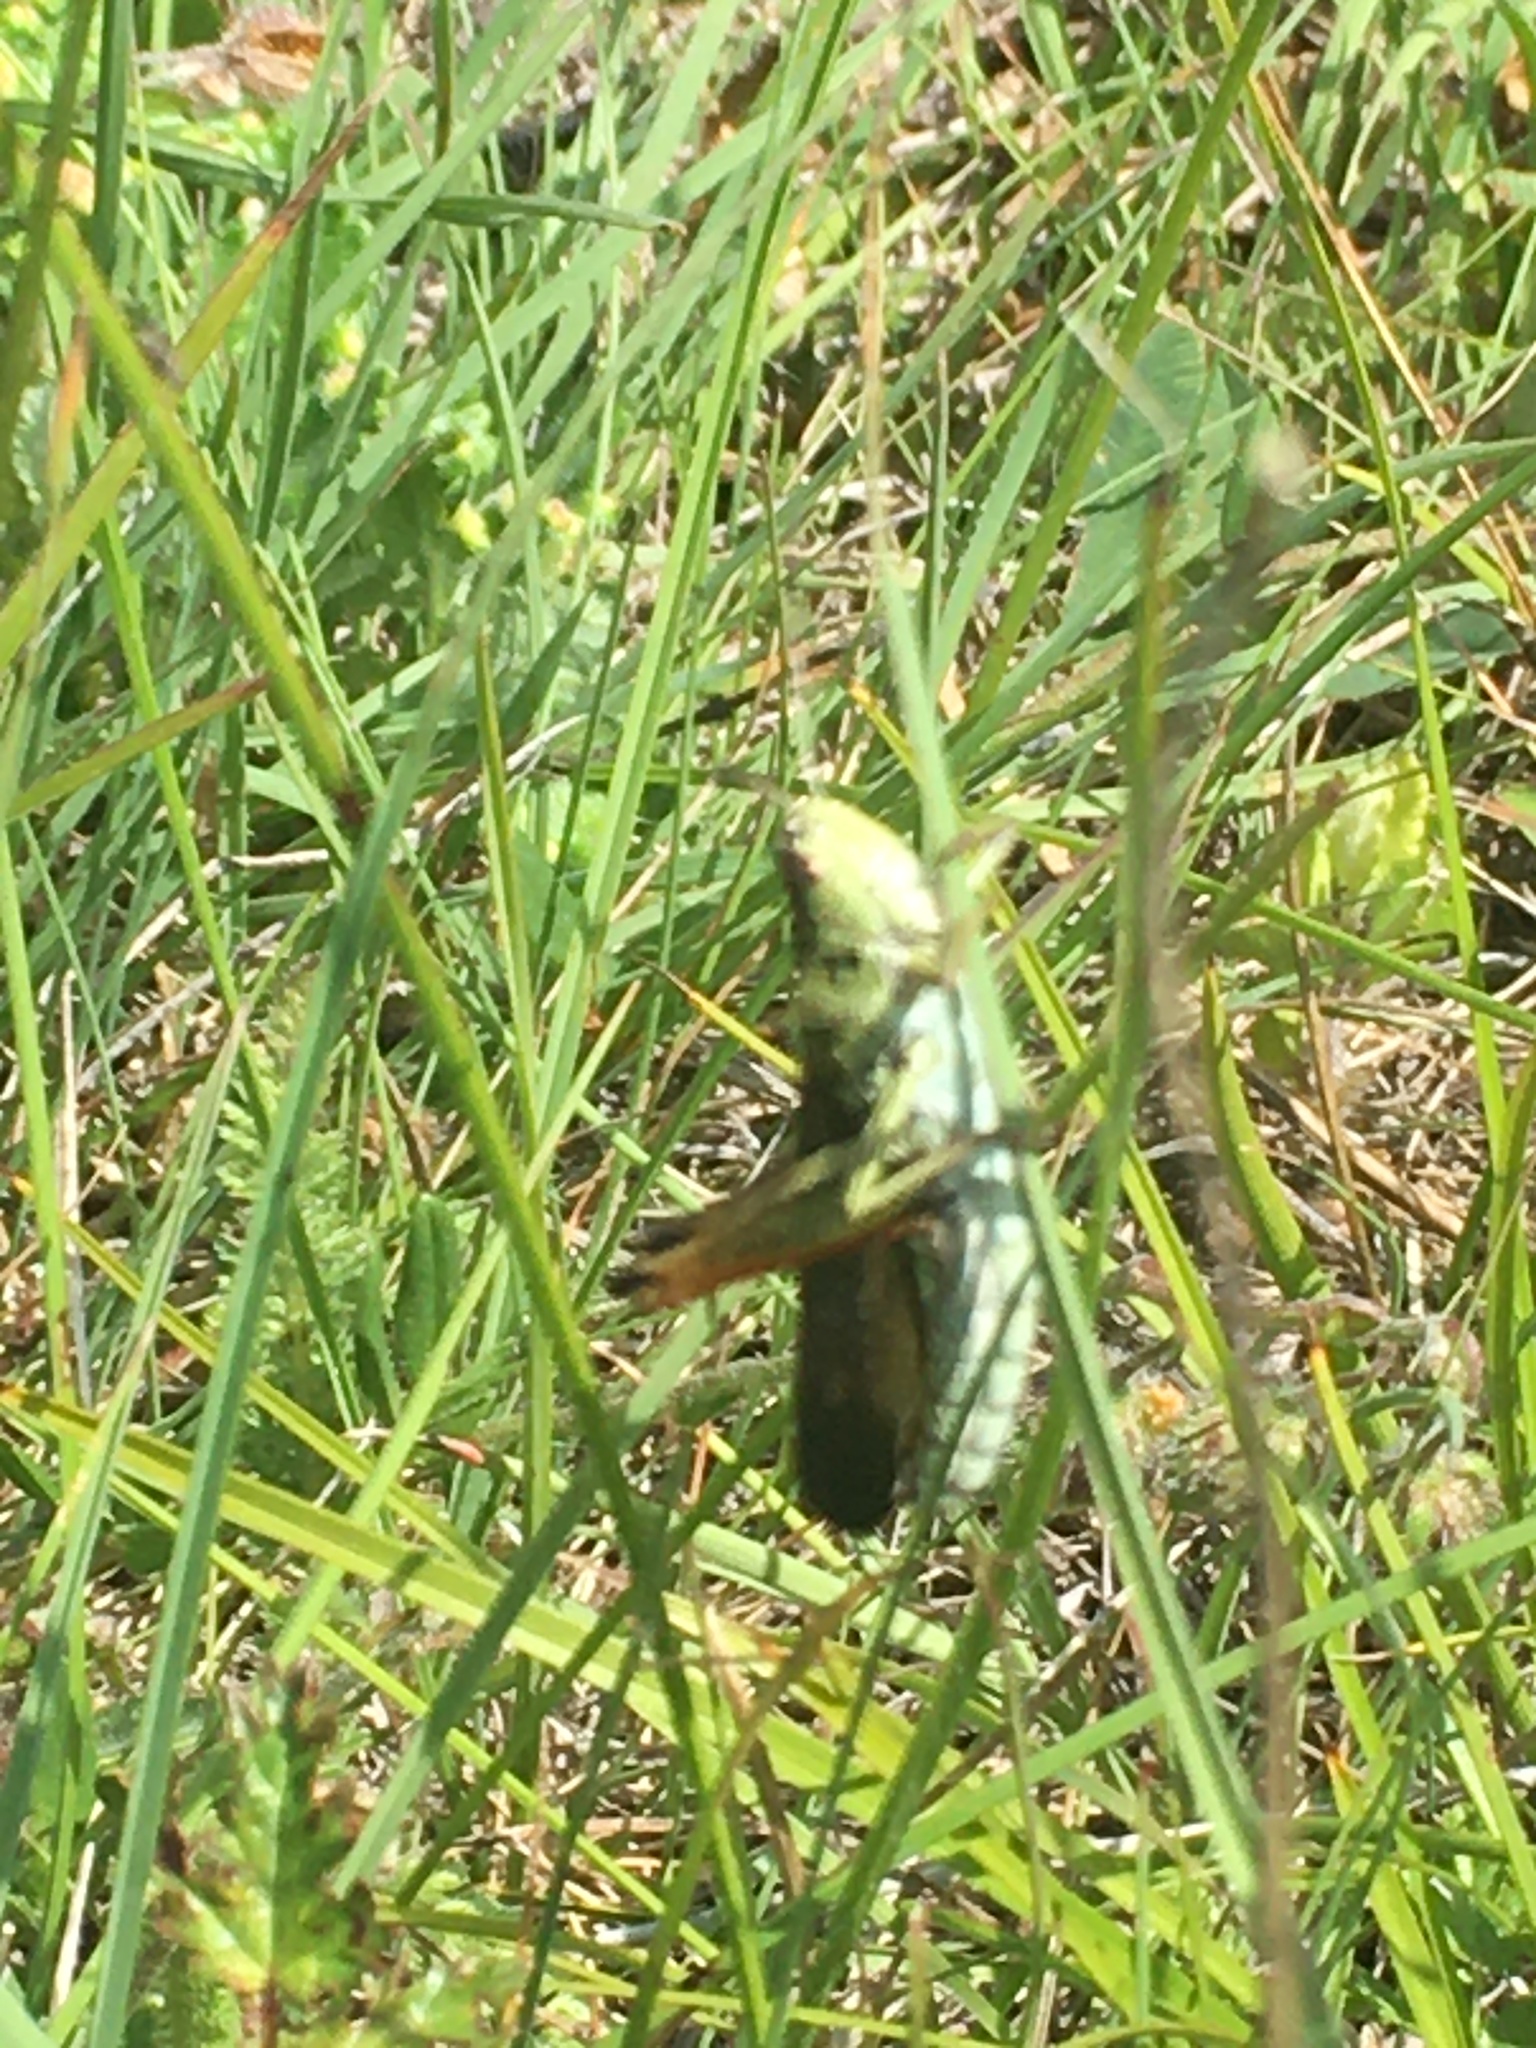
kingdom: Animalia
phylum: Arthropoda
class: Insecta
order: Orthoptera
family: Acrididae
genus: Stauroderus
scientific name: Stauroderus scalaris
